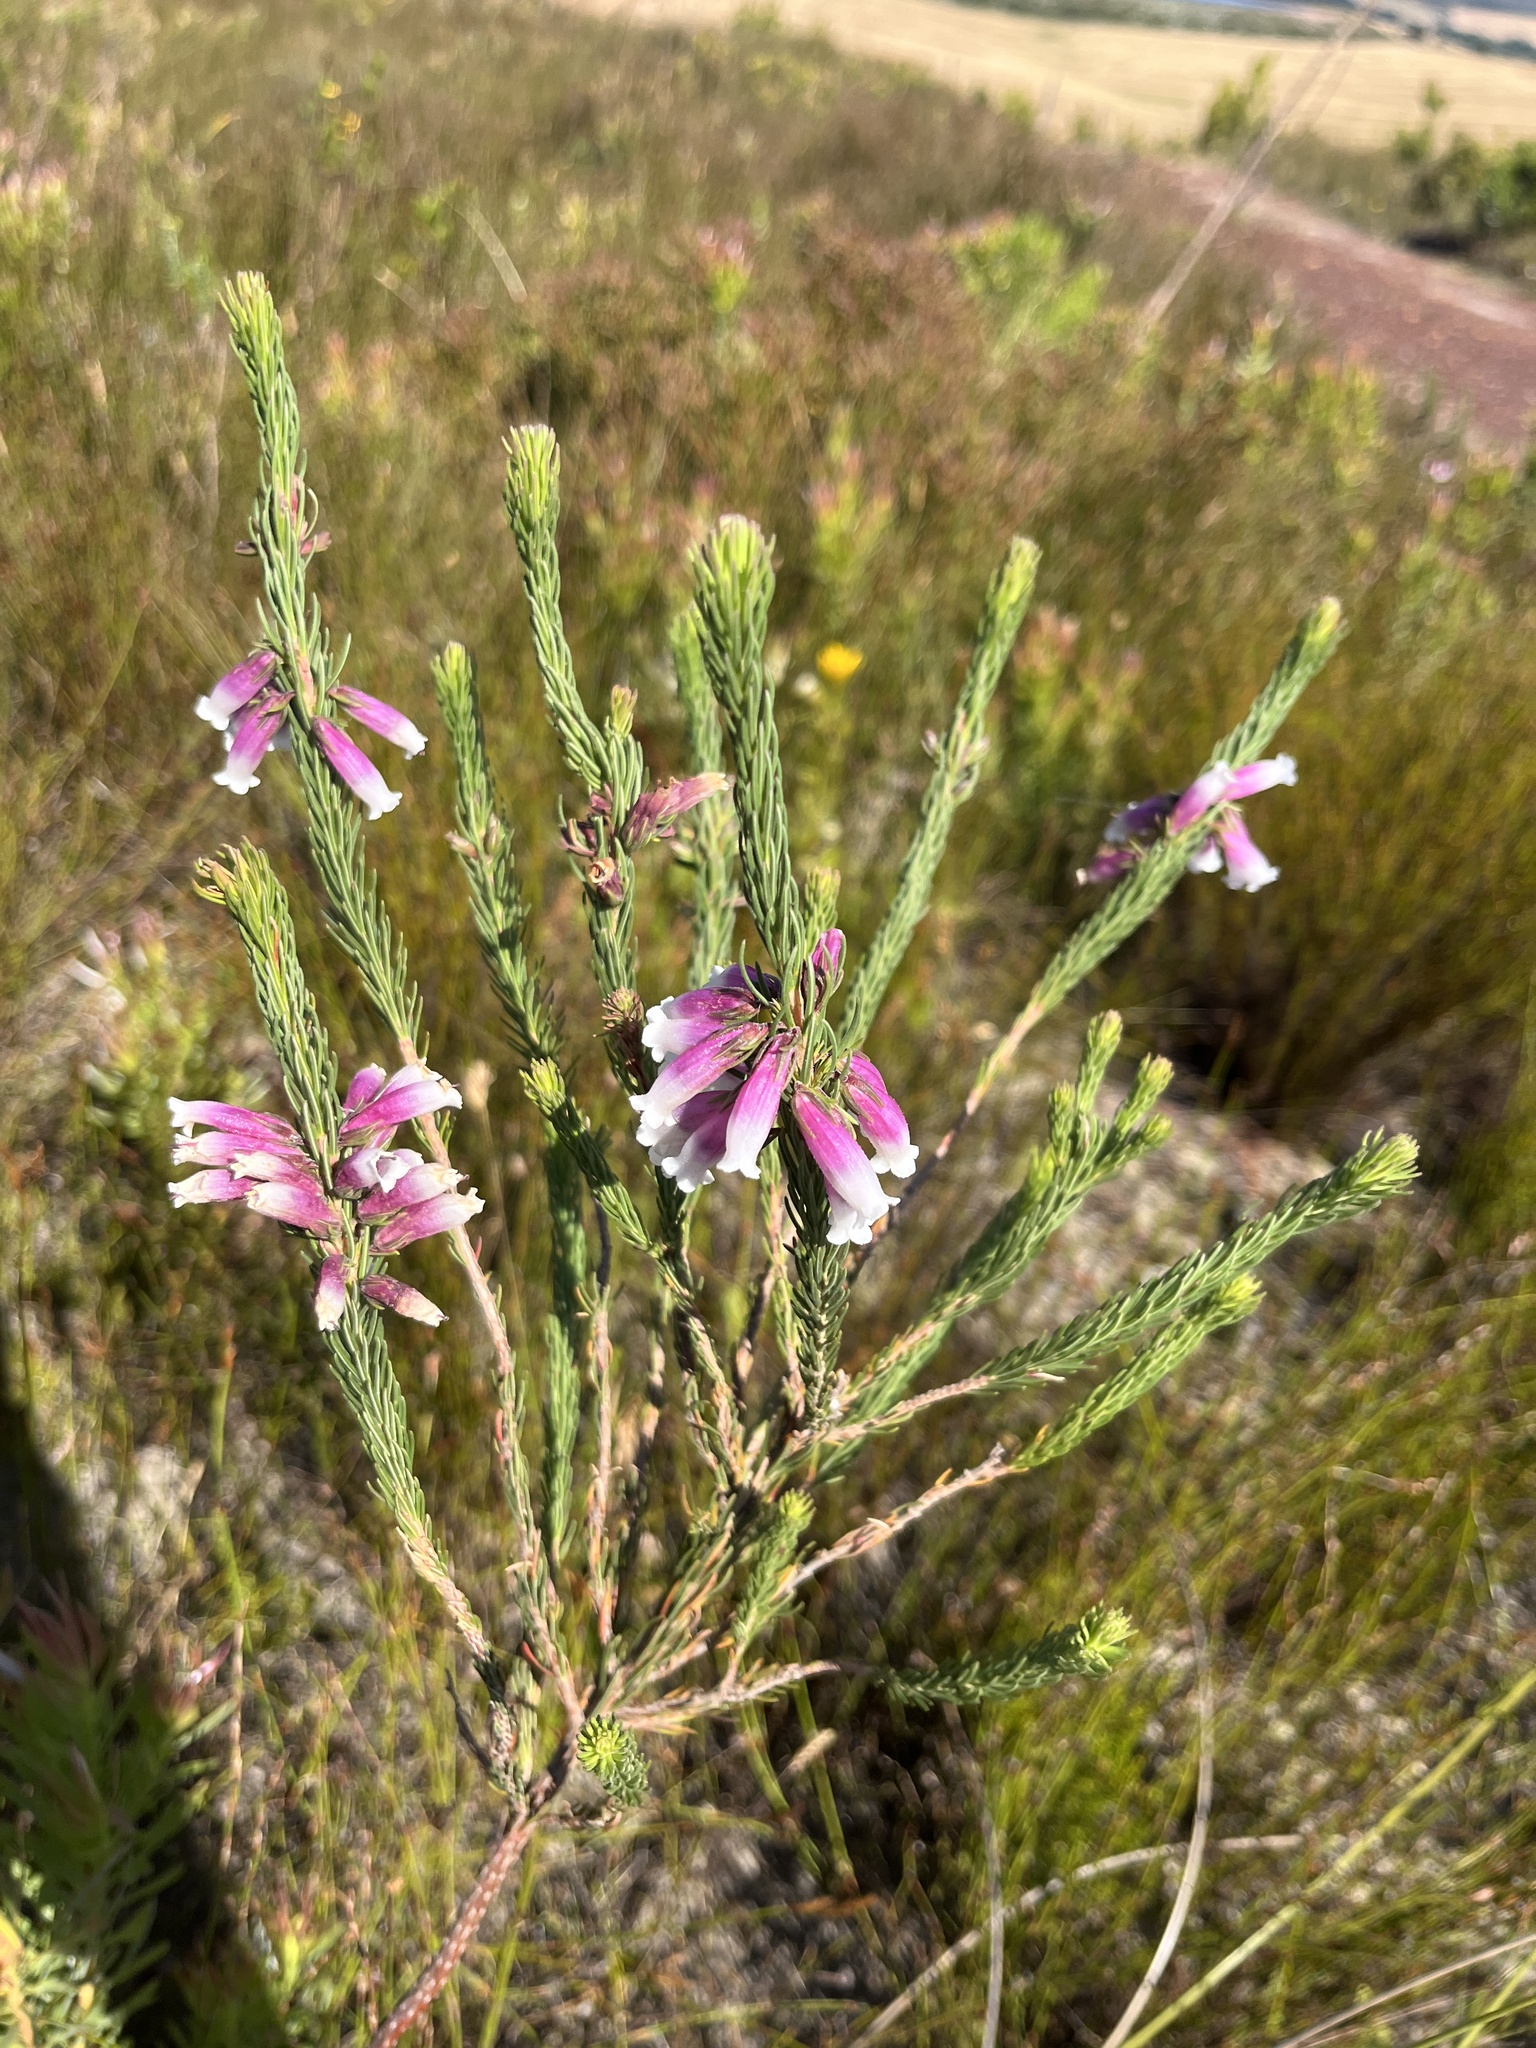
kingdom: Plantae
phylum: Tracheophyta
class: Magnoliopsida
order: Ericales
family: Ericaceae
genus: Erica
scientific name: Erica viscaria
